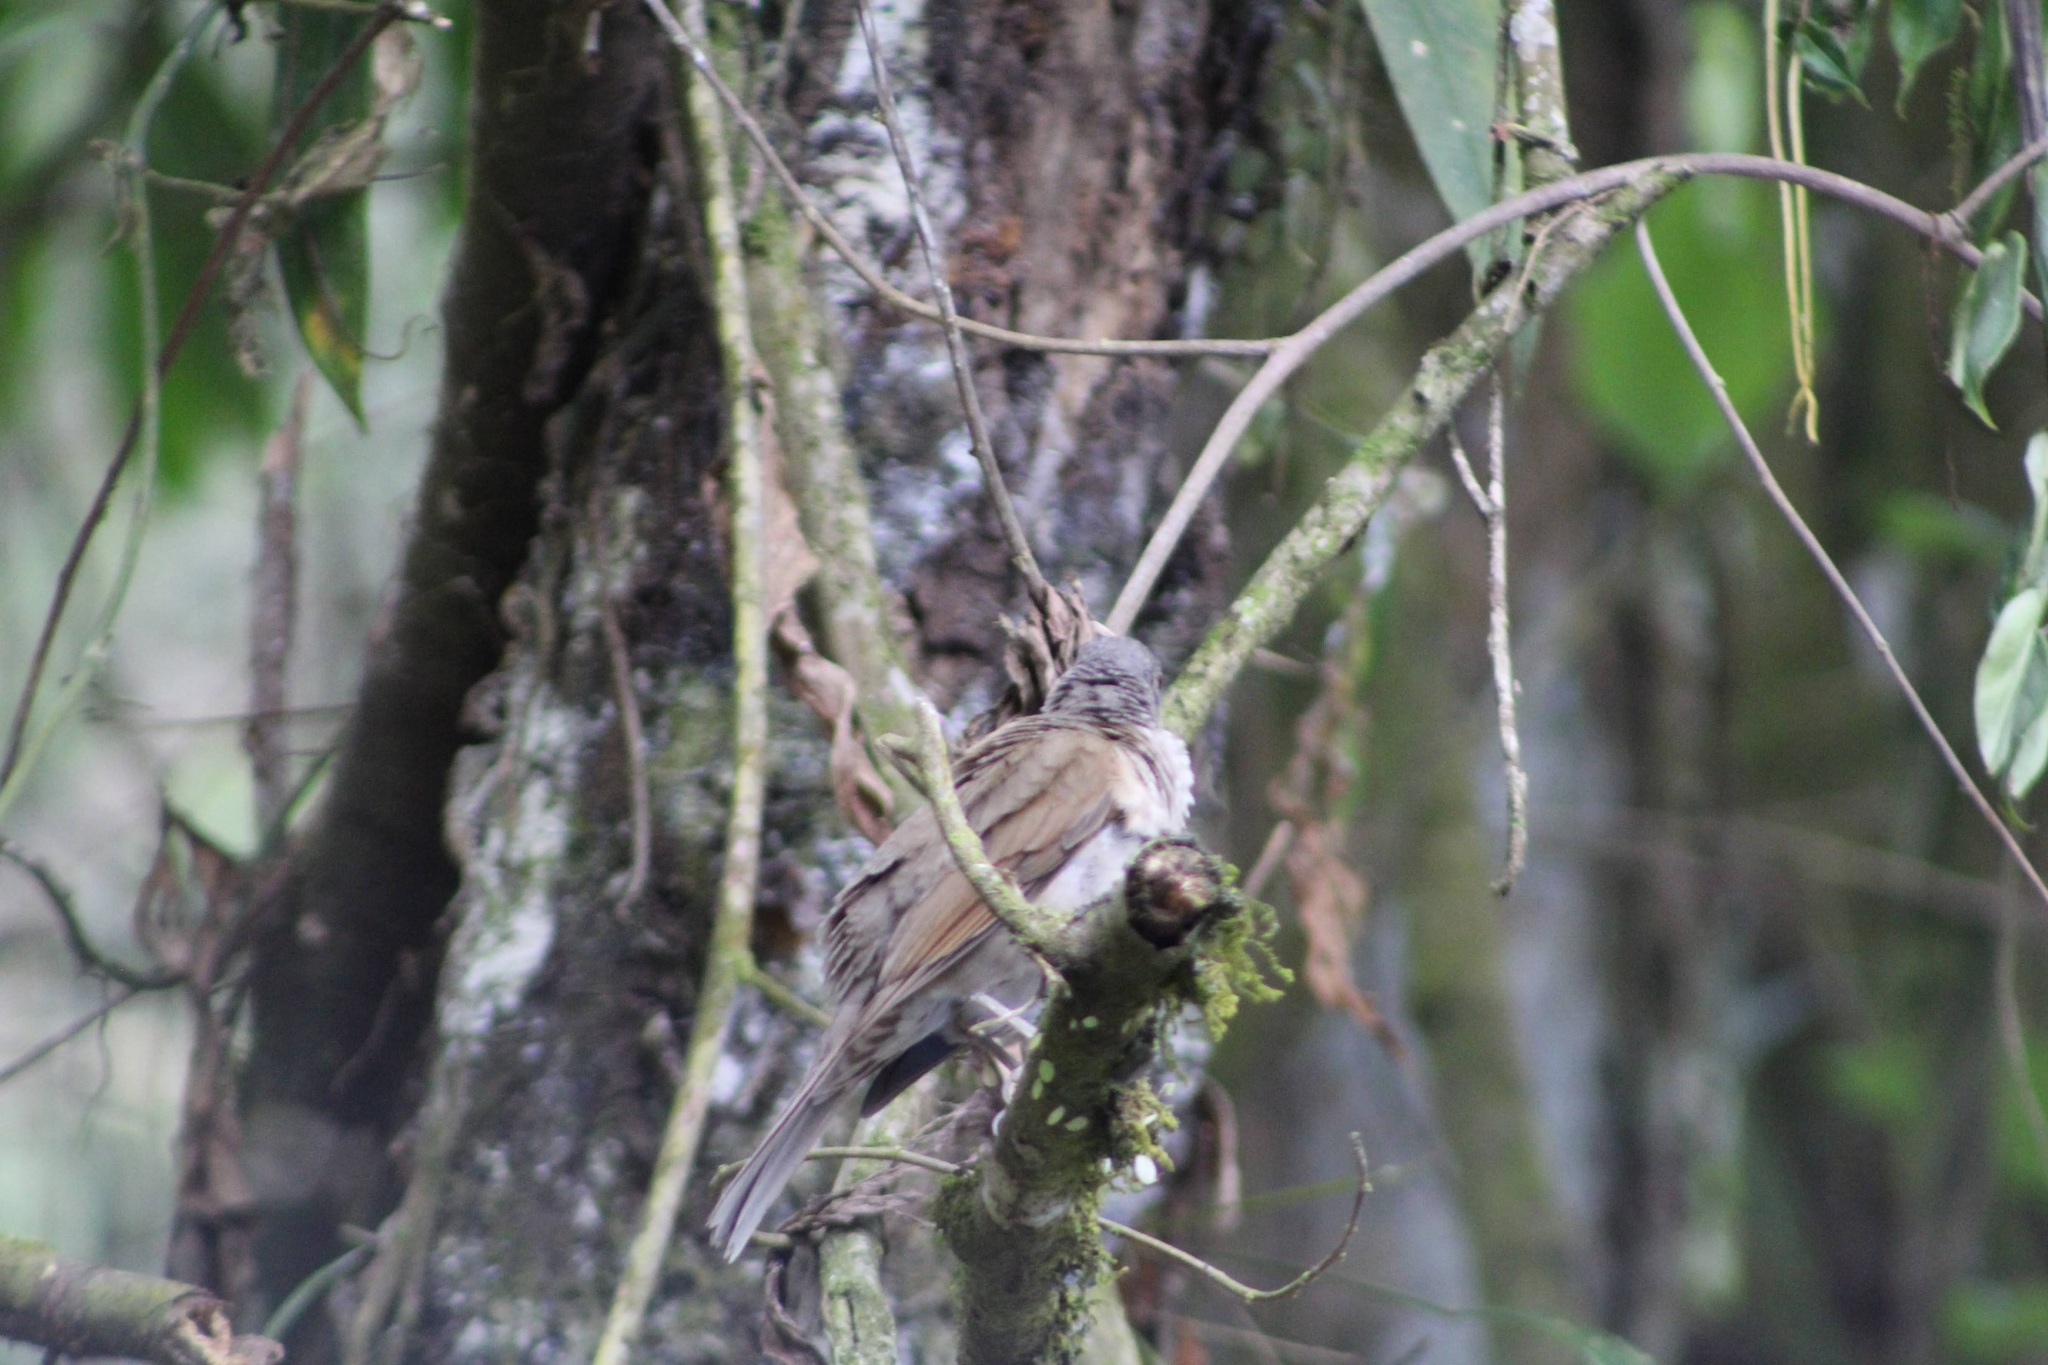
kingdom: Animalia
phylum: Chordata
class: Aves
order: Passeriformes
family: Turdidae
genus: Turdus
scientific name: Turdus leucomelas
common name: Pale-breasted thrush
